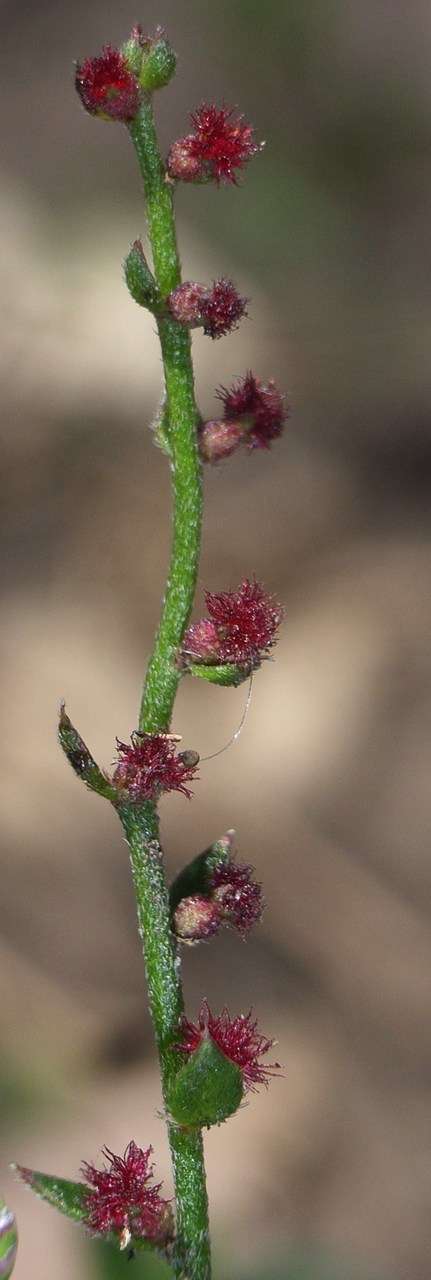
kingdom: Plantae
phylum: Tracheophyta
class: Magnoliopsida
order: Saxifragales
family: Haloragaceae
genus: Gonocarpus
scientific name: Gonocarpus tetragynus
